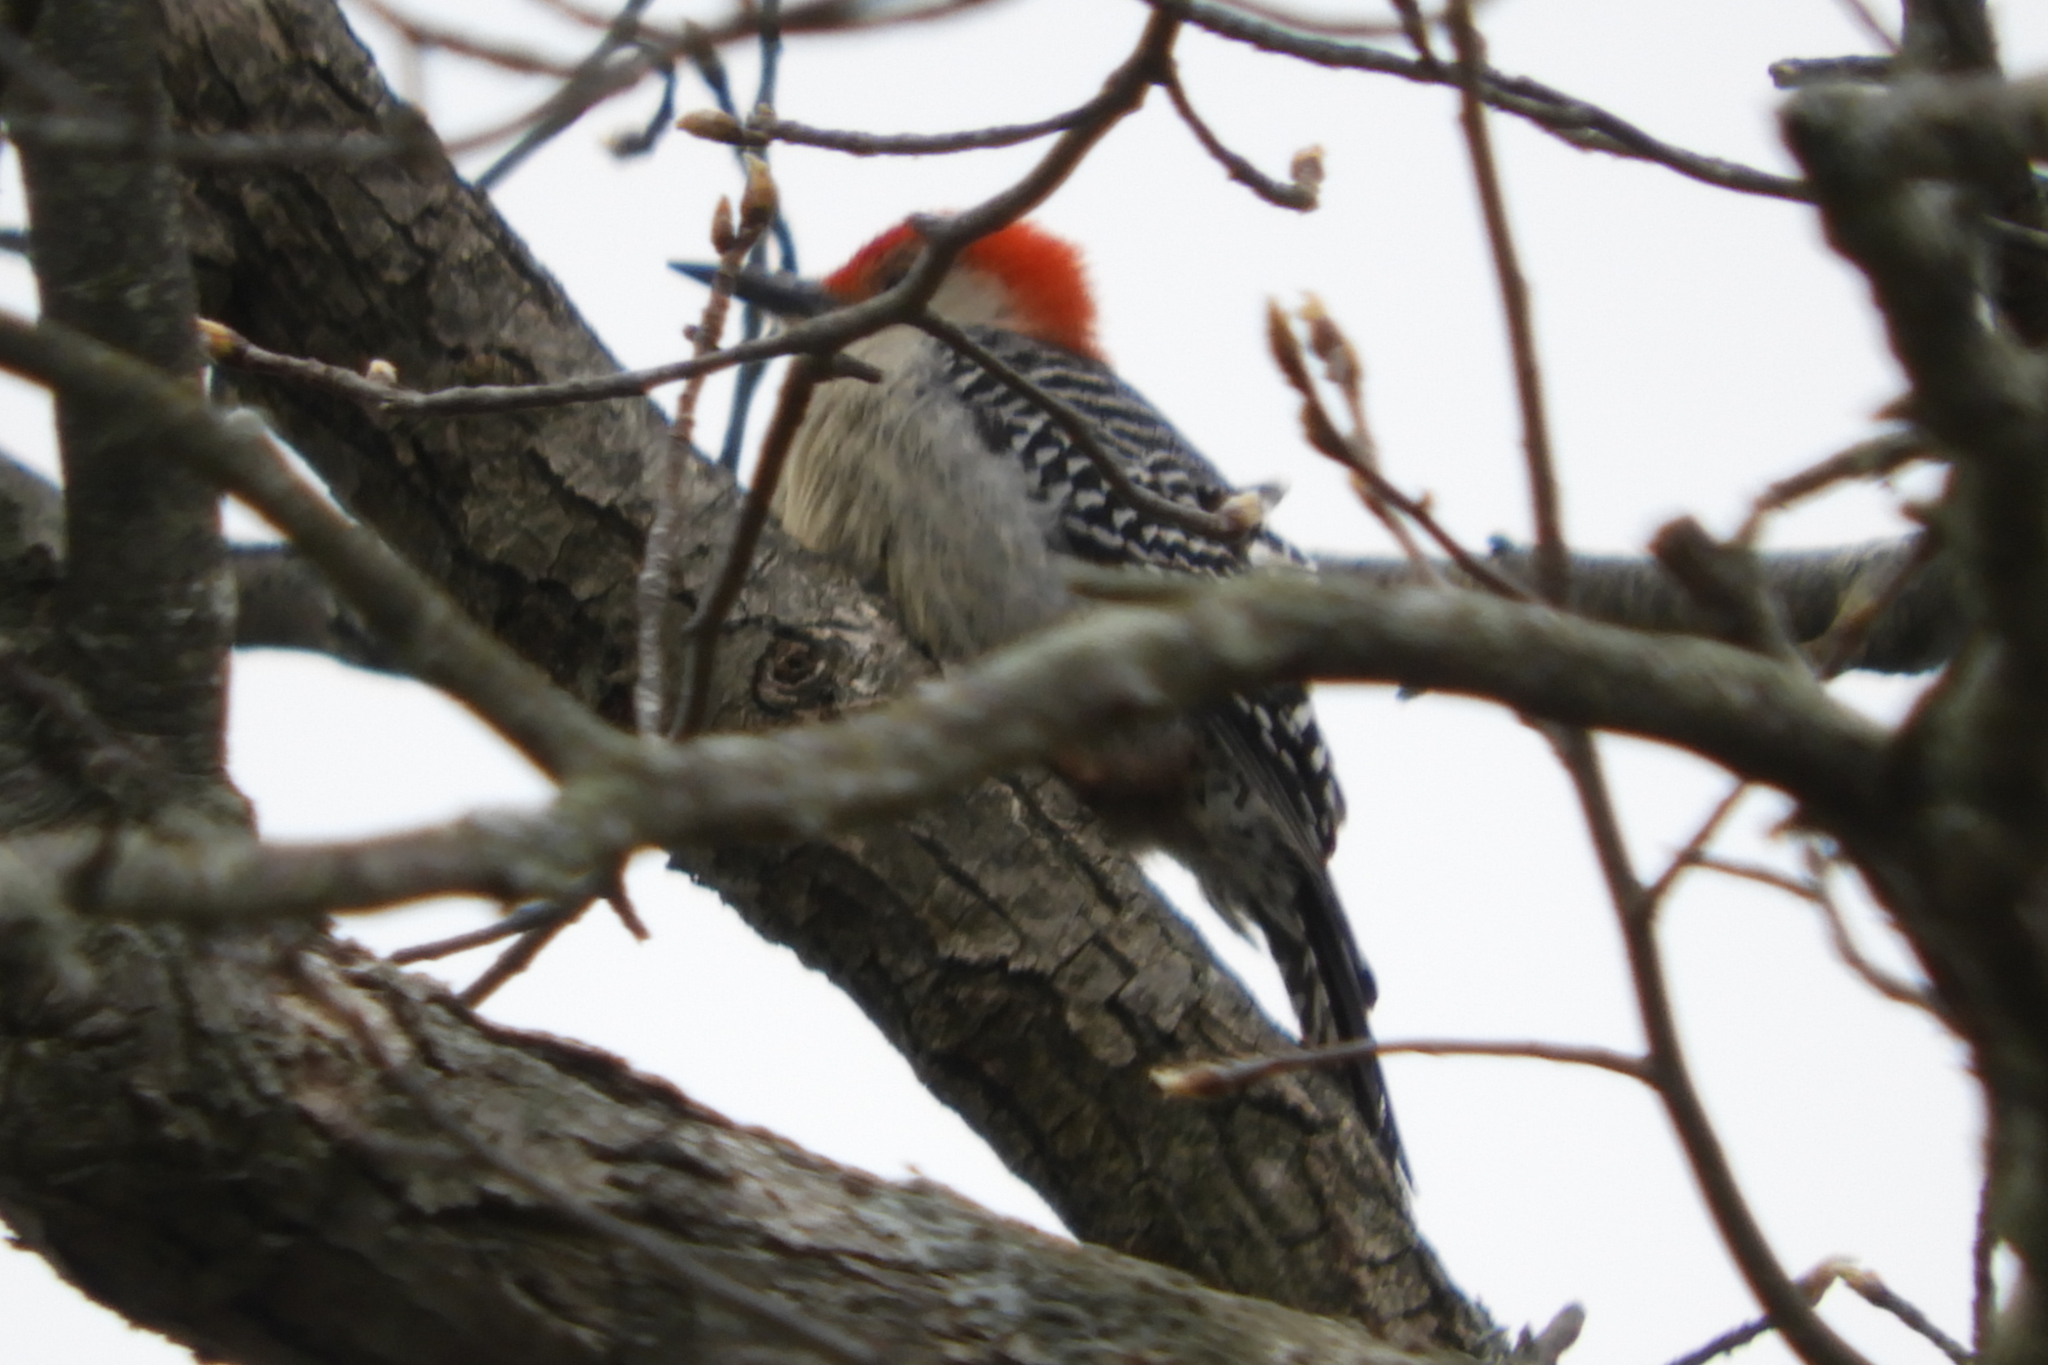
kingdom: Animalia
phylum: Chordata
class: Aves
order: Piciformes
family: Picidae
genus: Melanerpes
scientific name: Melanerpes carolinus
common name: Red-bellied woodpecker
